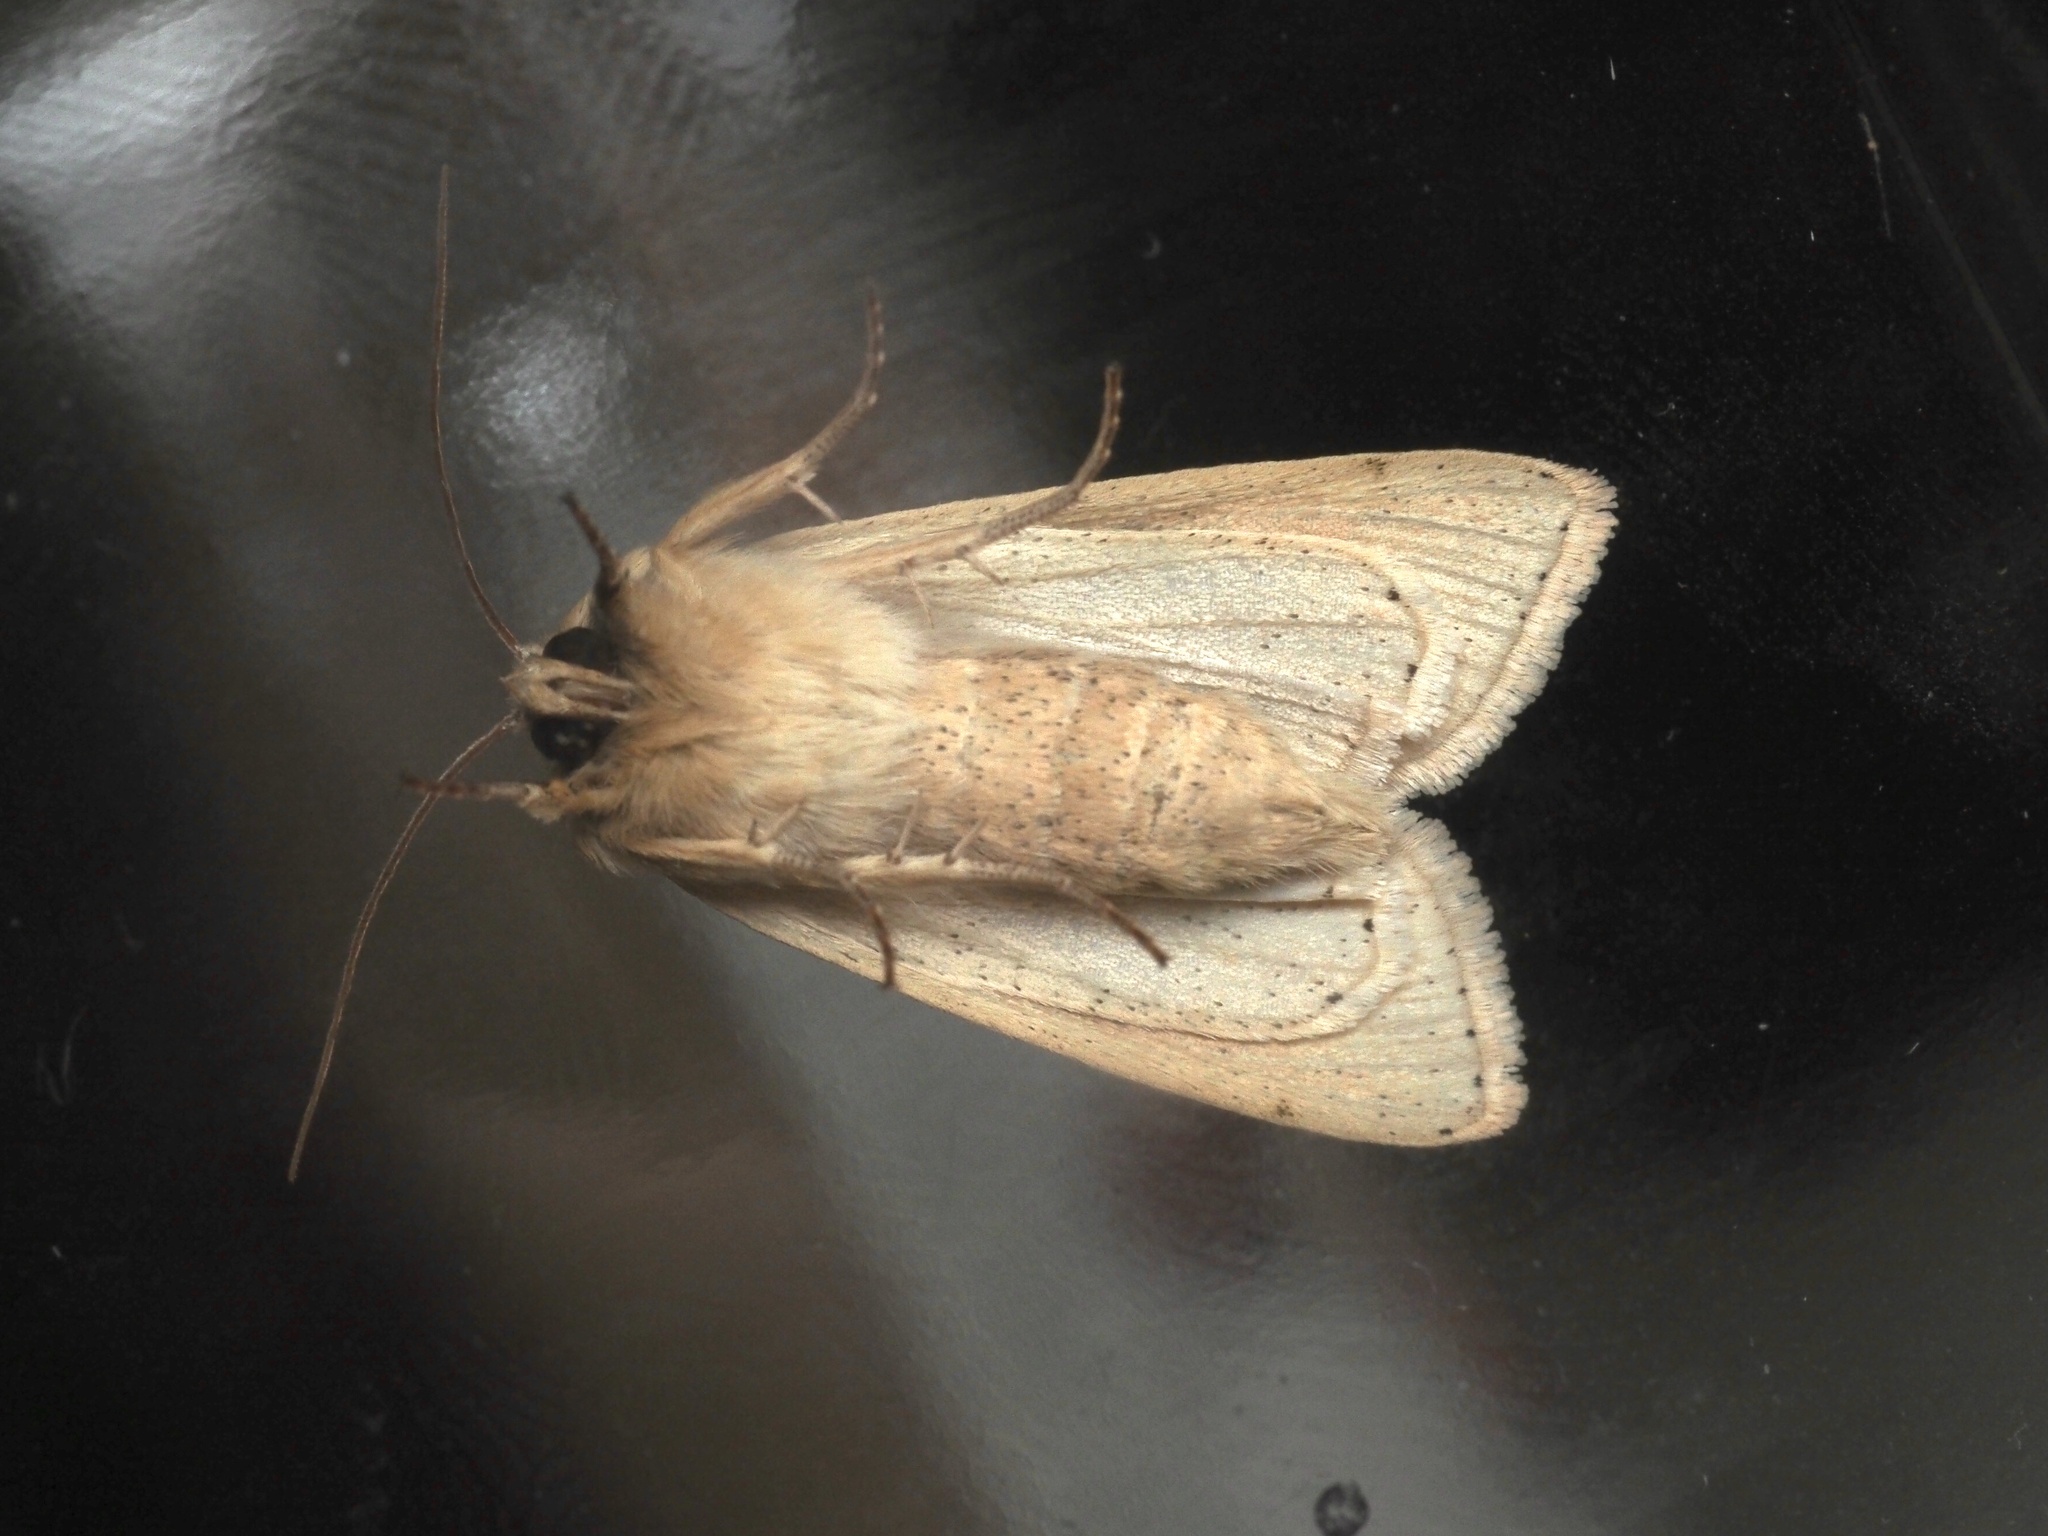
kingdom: Animalia
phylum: Arthropoda
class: Insecta
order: Lepidoptera
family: Noctuidae
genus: Mythimna
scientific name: Mythimna pallens
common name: Common wainscot
